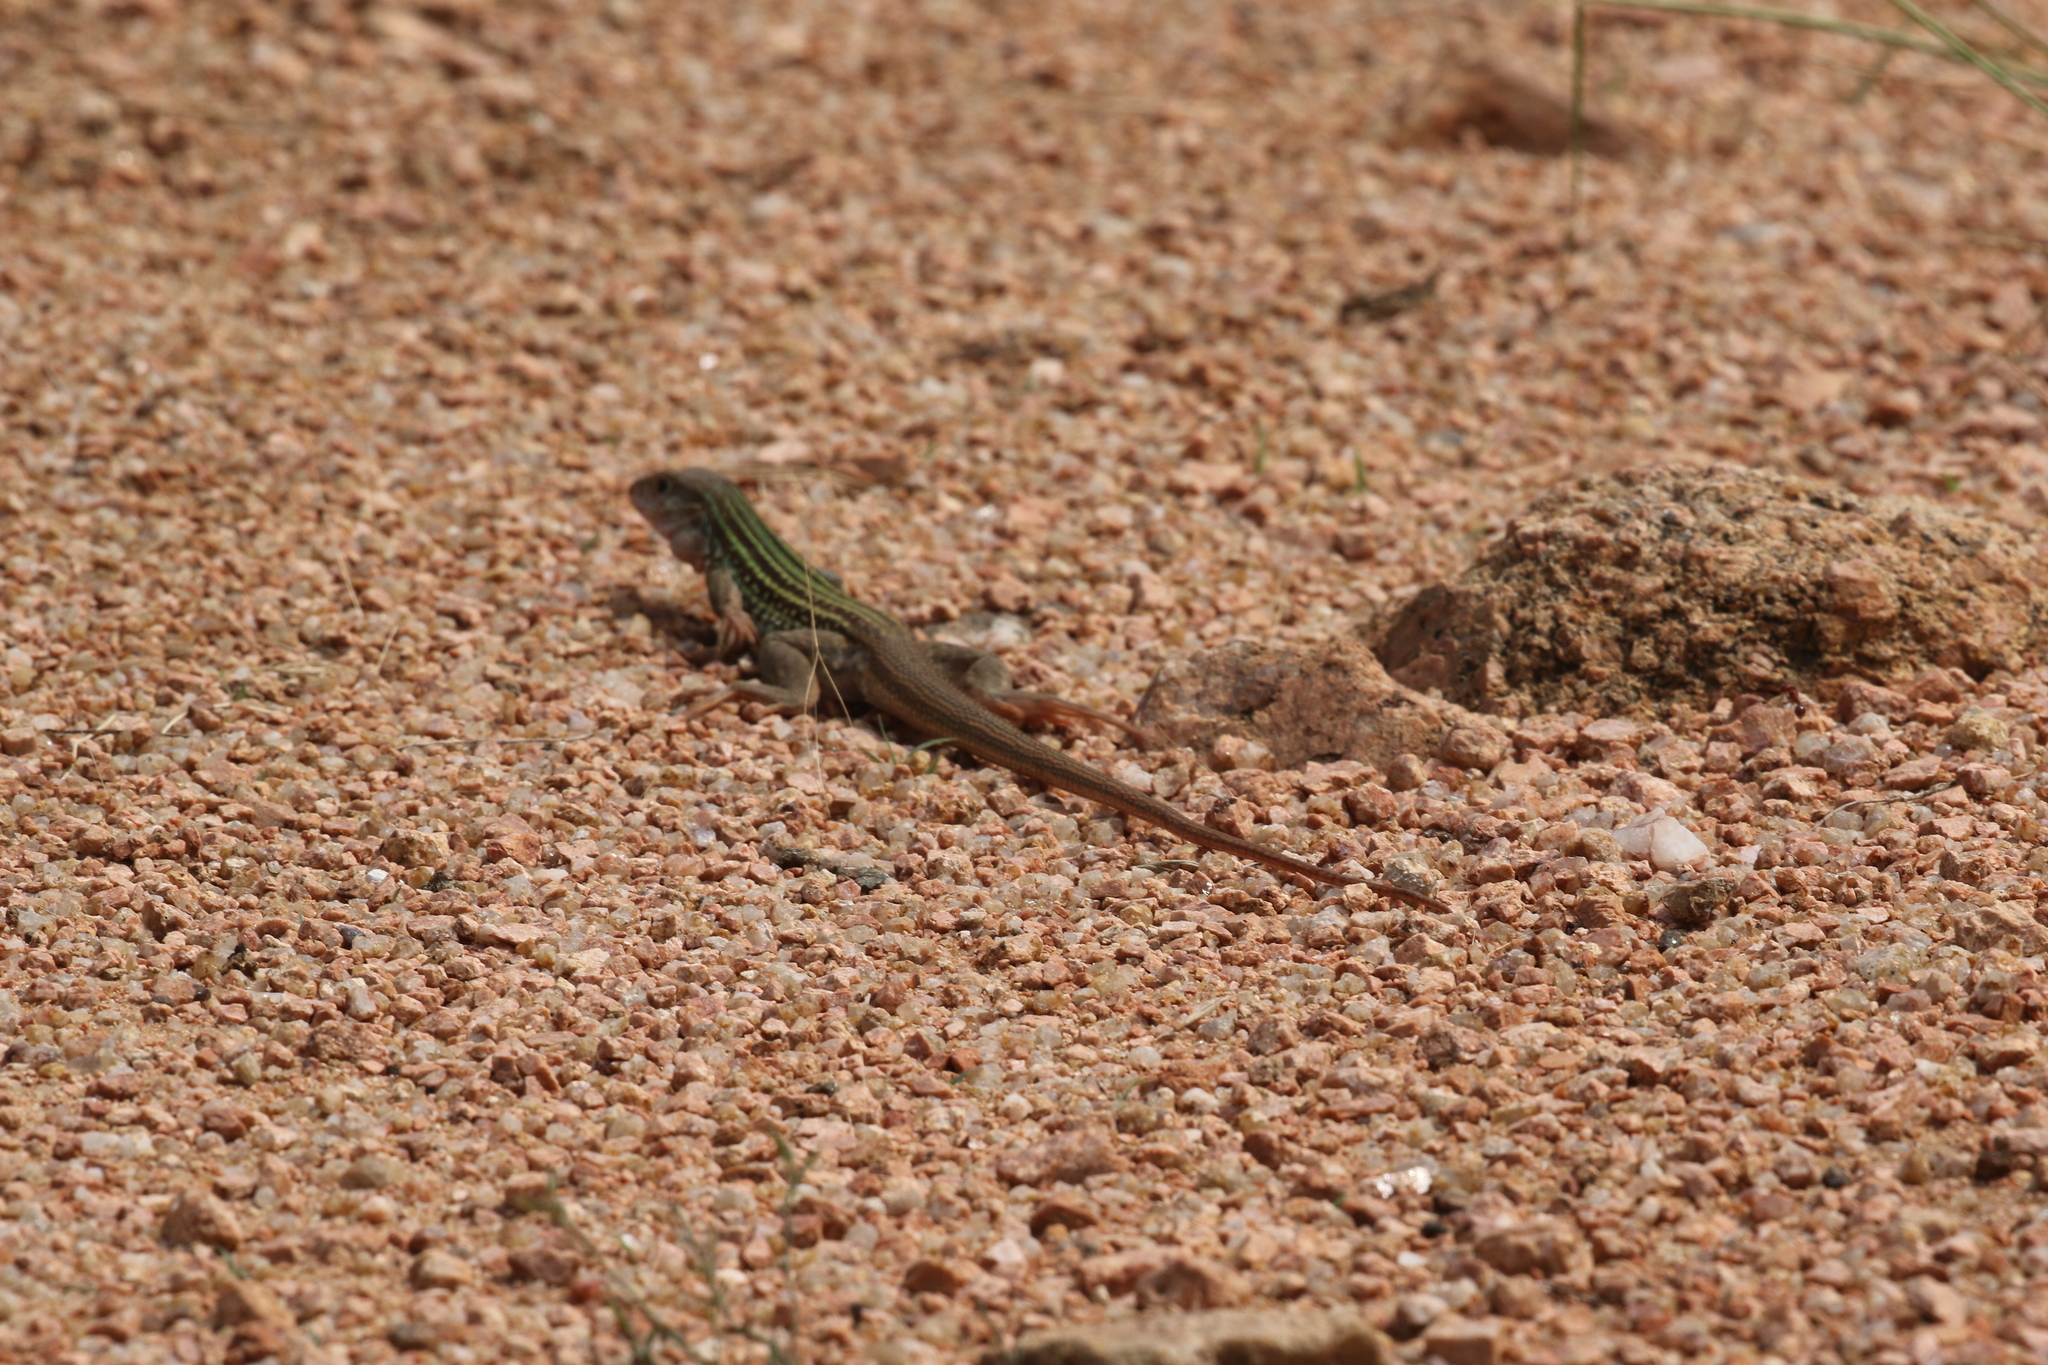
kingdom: Animalia
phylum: Chordata
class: Squamata
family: Teiidae
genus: Aspidoscelis
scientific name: Aspidoscelis gularis
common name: Eastern spotted whiptail
